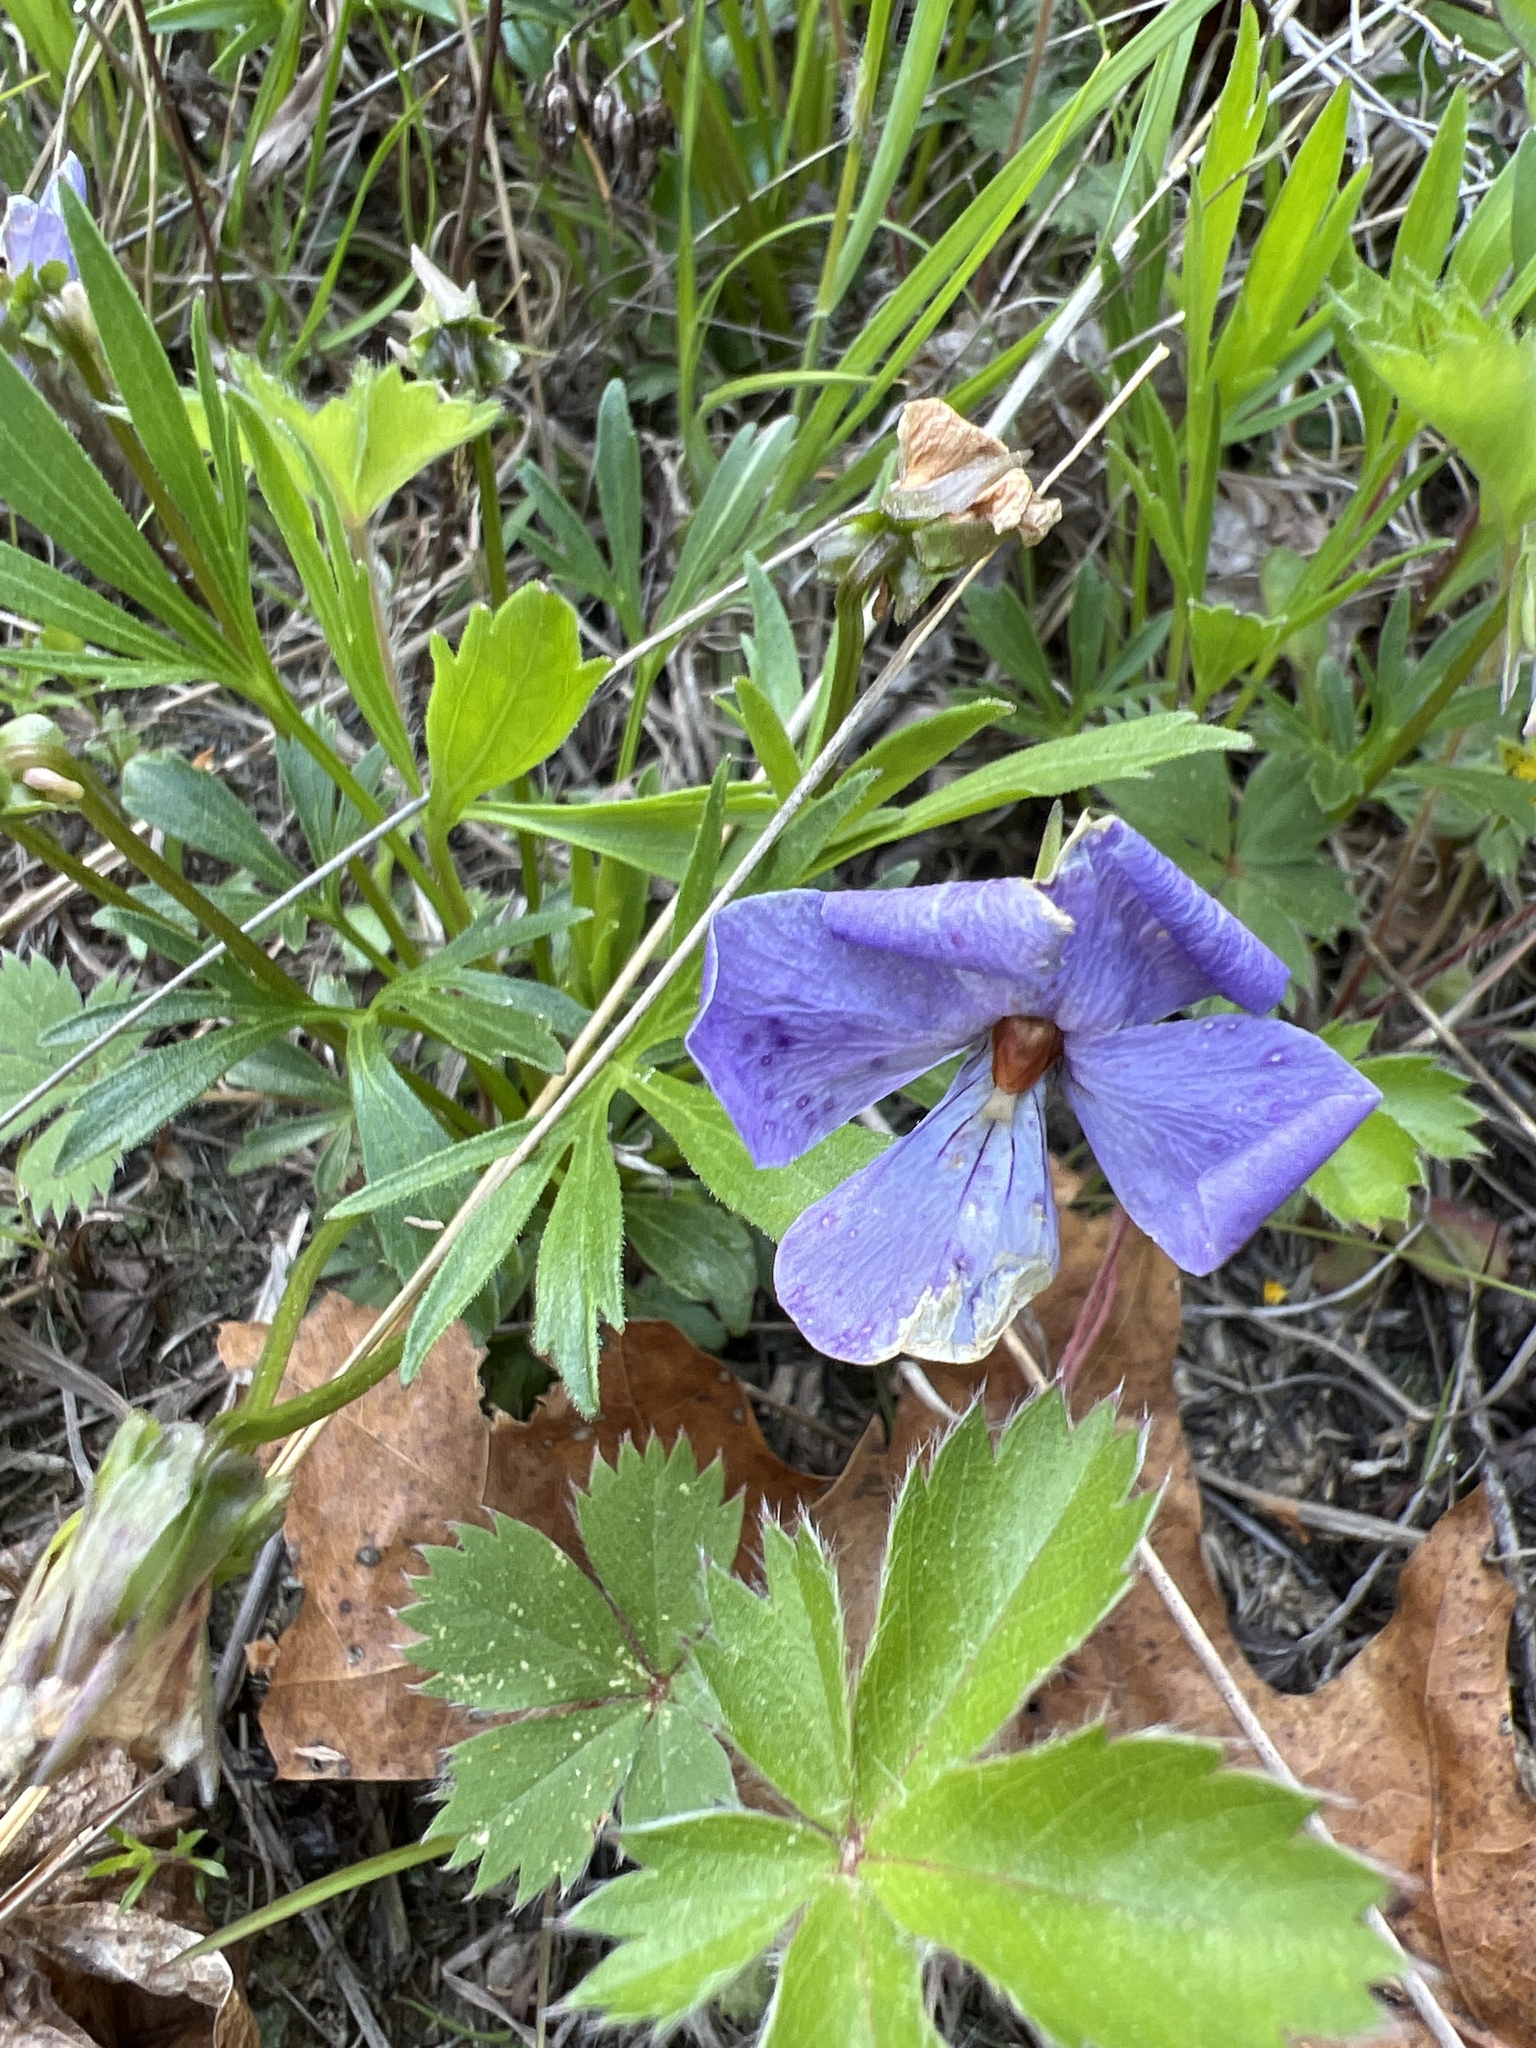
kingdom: Plantae
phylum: Tracheophyta
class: Magnoliopsida
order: Malpighiales
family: Violaceae
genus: Viola
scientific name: Viola pedata
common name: Pansy violet
